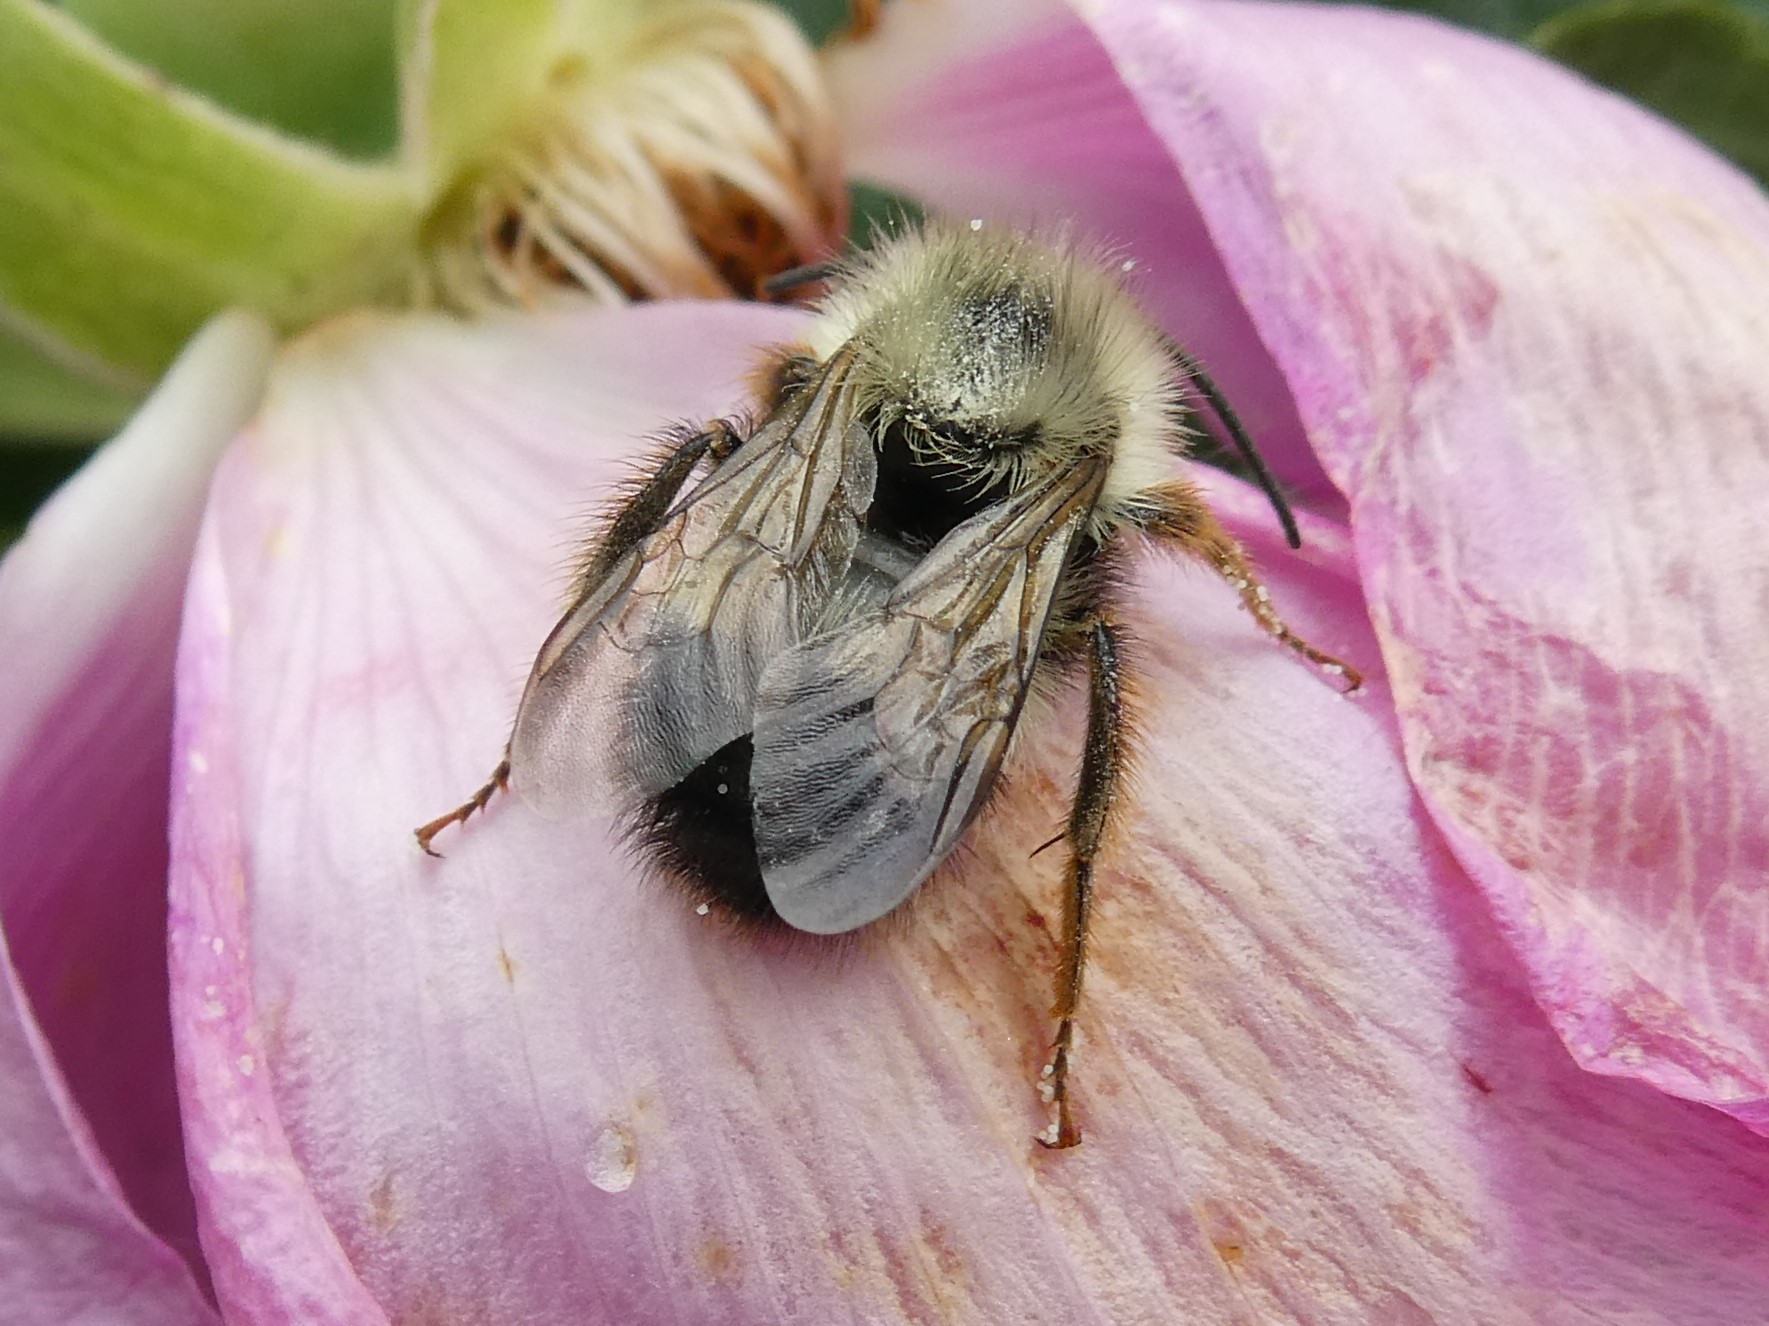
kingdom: Animalia
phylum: Arthropoda
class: Insecta
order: Hymenoptera
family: Apidae
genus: Pyrobombus
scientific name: Pyrobombus
